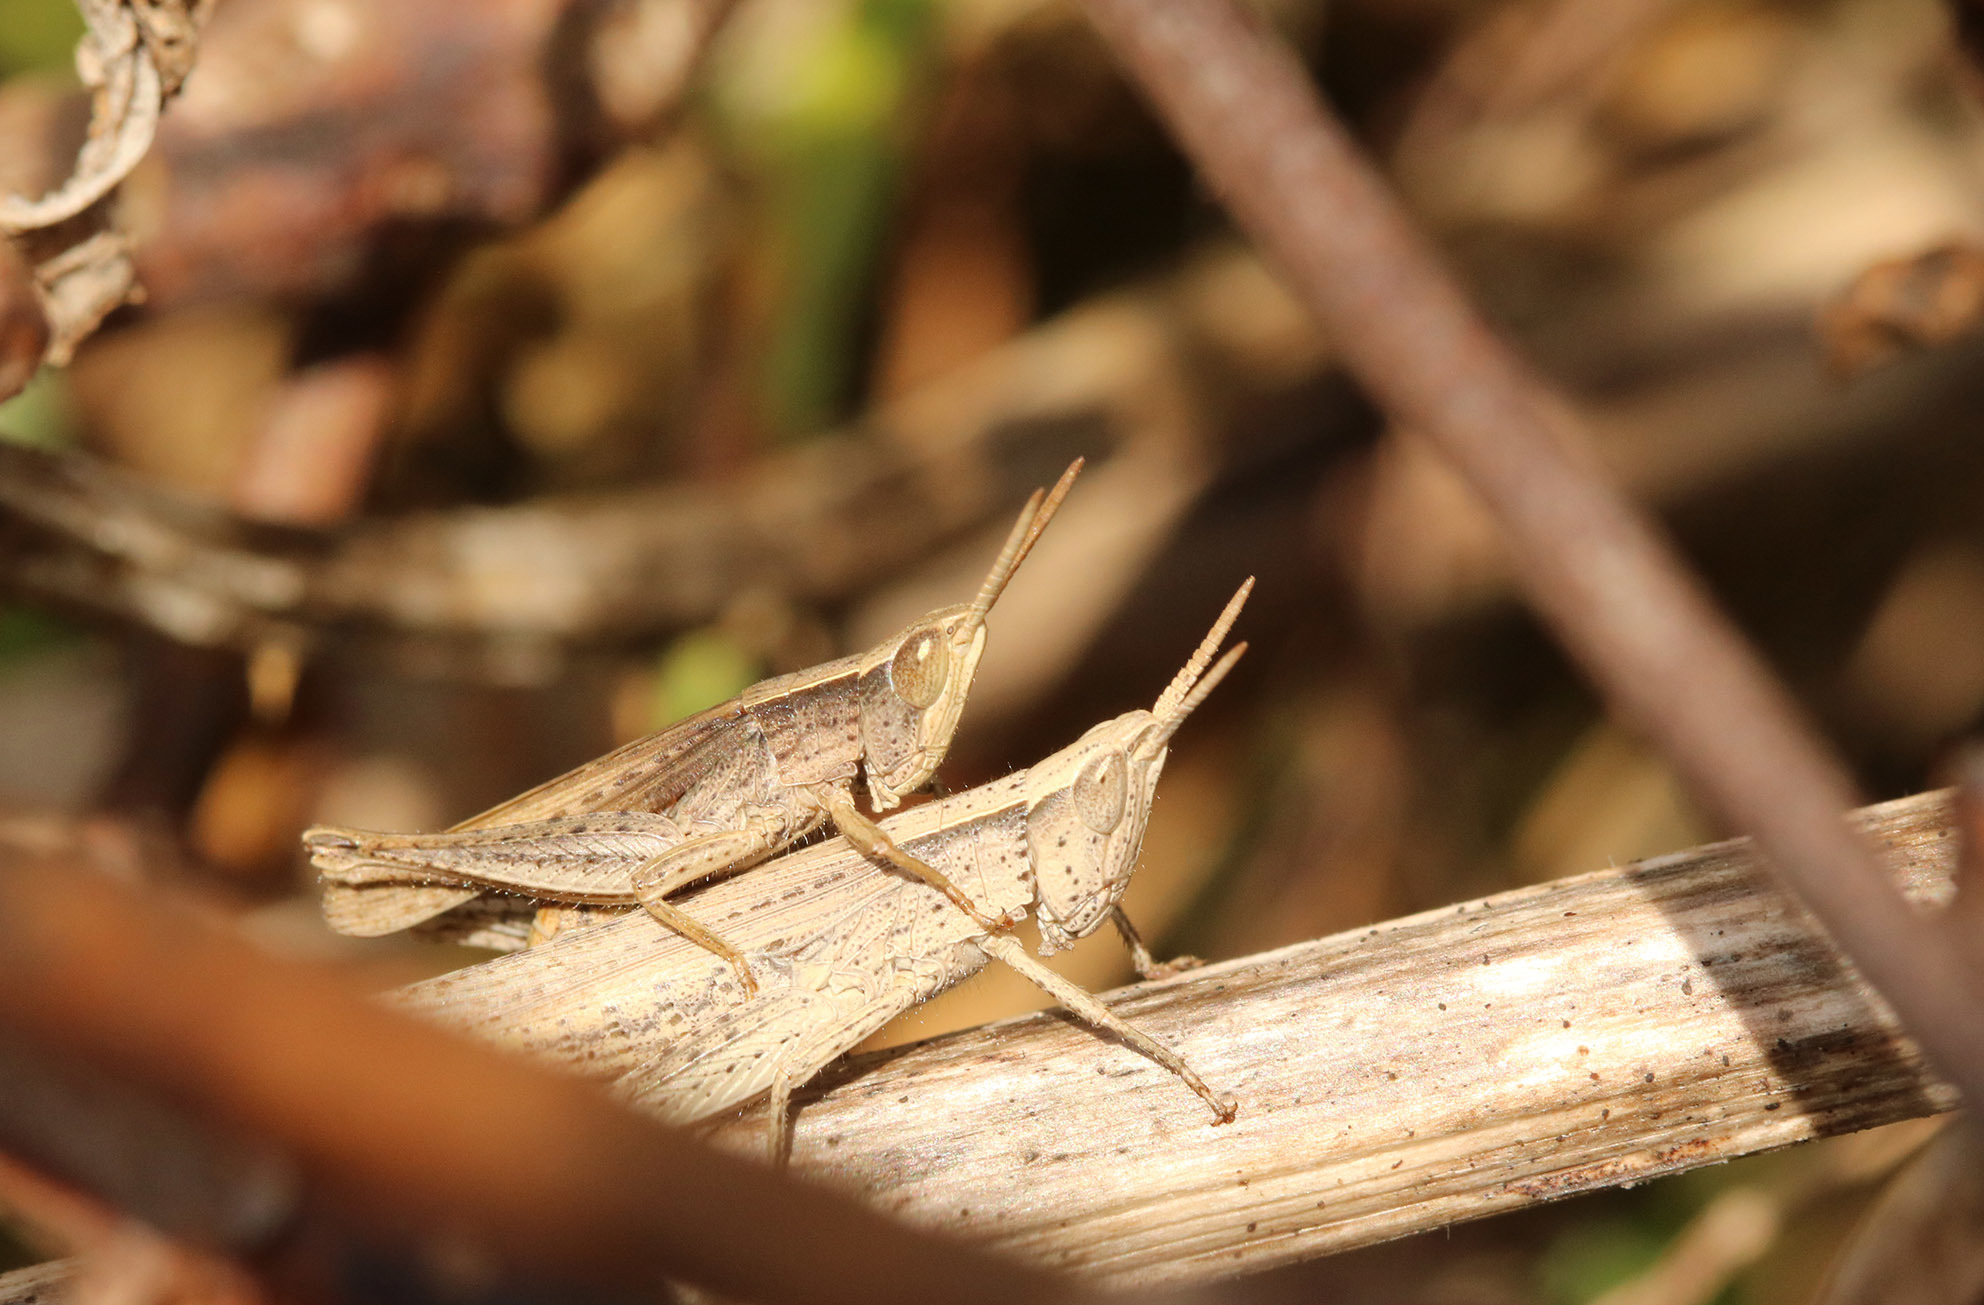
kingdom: Animalia
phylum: Arthropoda
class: Insecta
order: Orthoptera
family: Acrididae
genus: Laplatacris
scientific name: Laplatacris dispar
